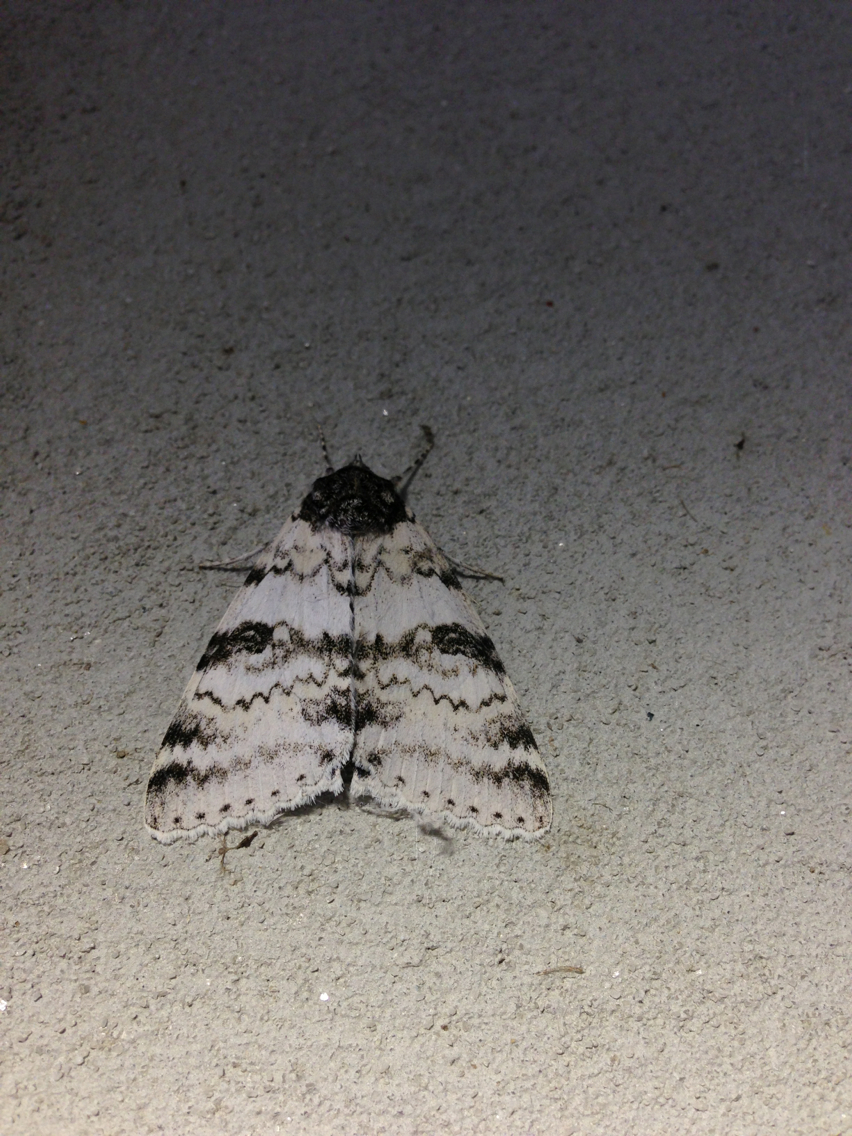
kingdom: Animalia
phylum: Arthropoda
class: Insecta
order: Lepidoptera
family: Erebidae
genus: Catocala
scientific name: Catocala relicta
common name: White underwing
